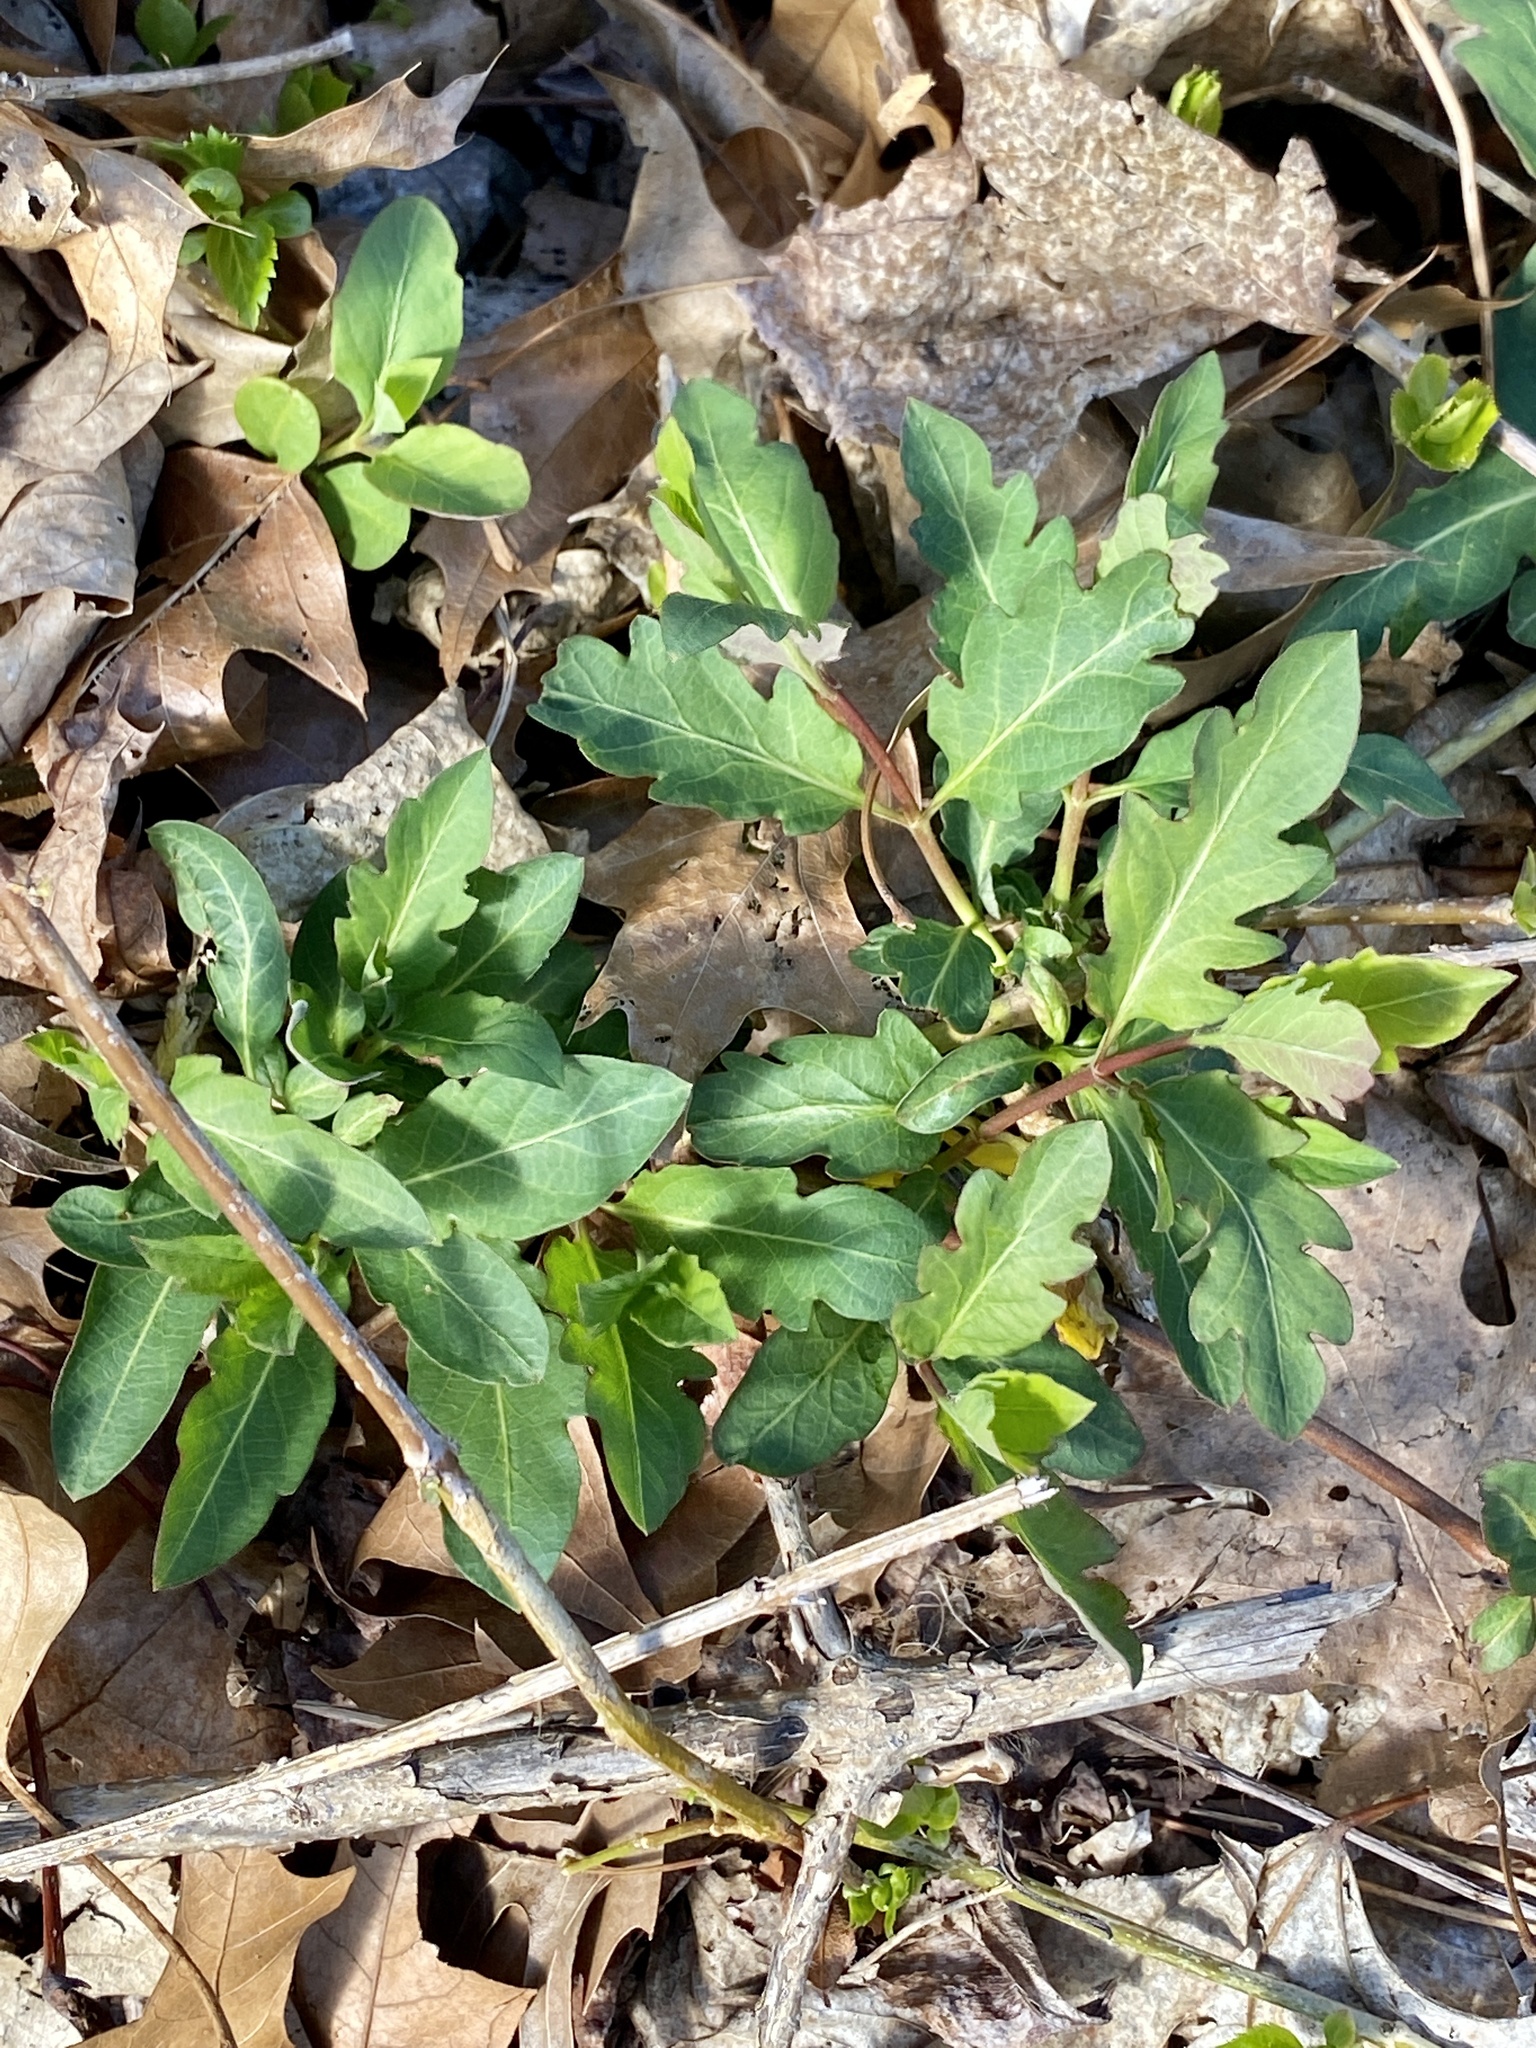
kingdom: Plantae
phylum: Tracheophyta
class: Magnoliopsida
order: Dipsacales
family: Caprifoliaceae
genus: Lonicera
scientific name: Lonicera japonica
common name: Japanese honeysuckle
